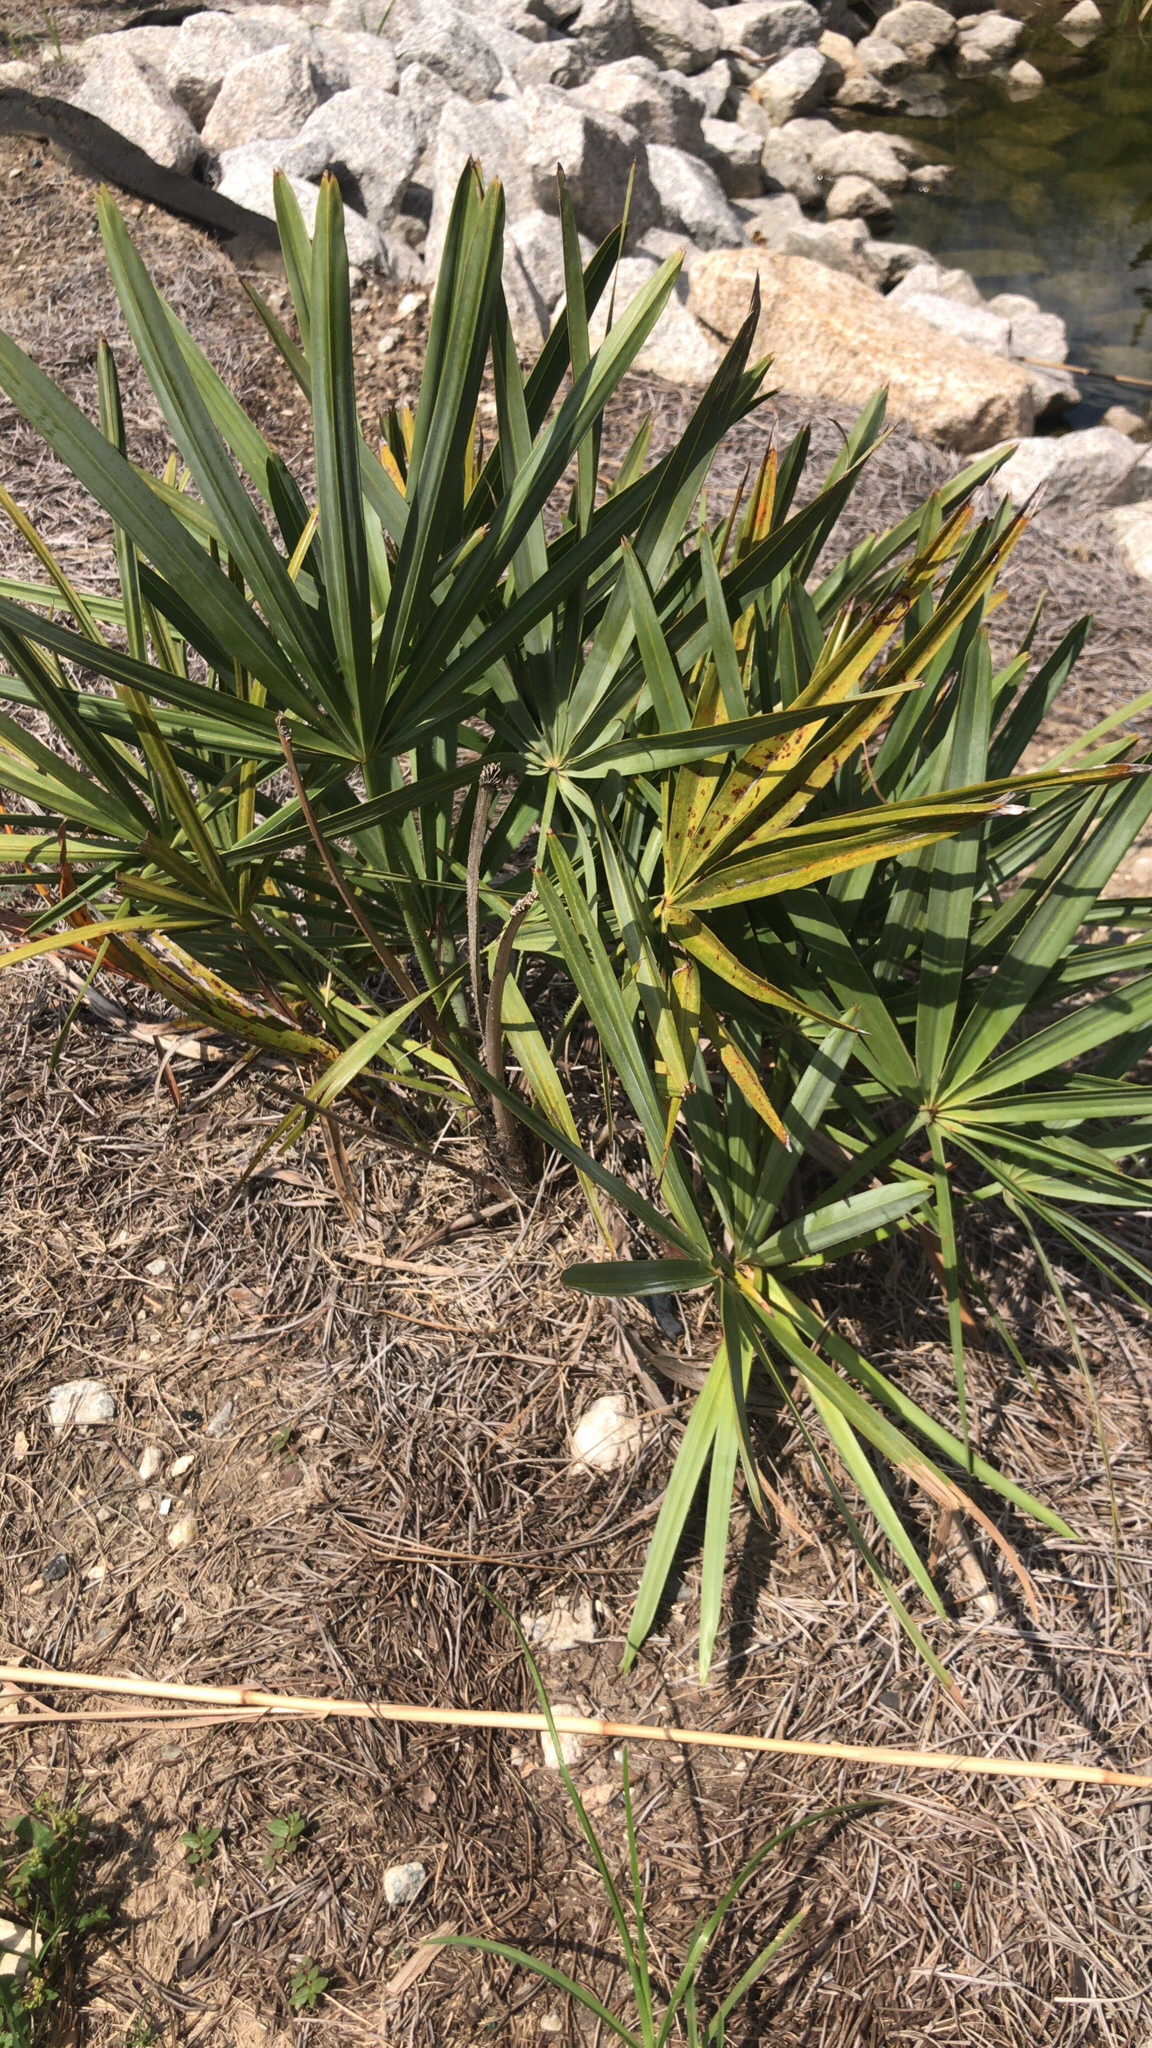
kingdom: Plantae
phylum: Tracheophyta
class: Liliopsida
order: Arecales
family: Arecaceae
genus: Serenoa
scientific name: Serenoa repens
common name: Saw-palmetto
